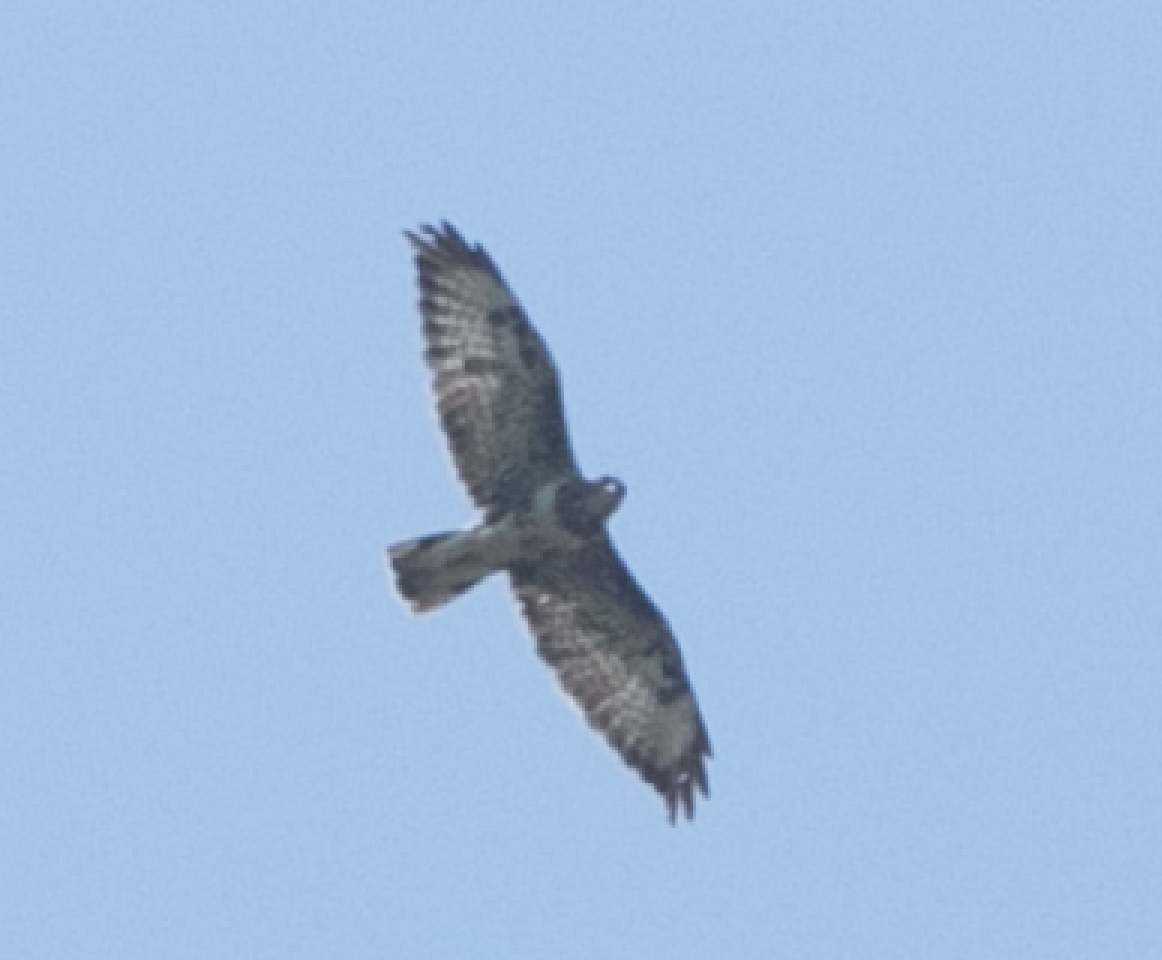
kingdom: Animalia
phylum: Chordata
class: Aves
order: Accipitriformes
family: Accipitridae
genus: Buteo
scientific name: Buteo buteo
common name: Common buzzard
